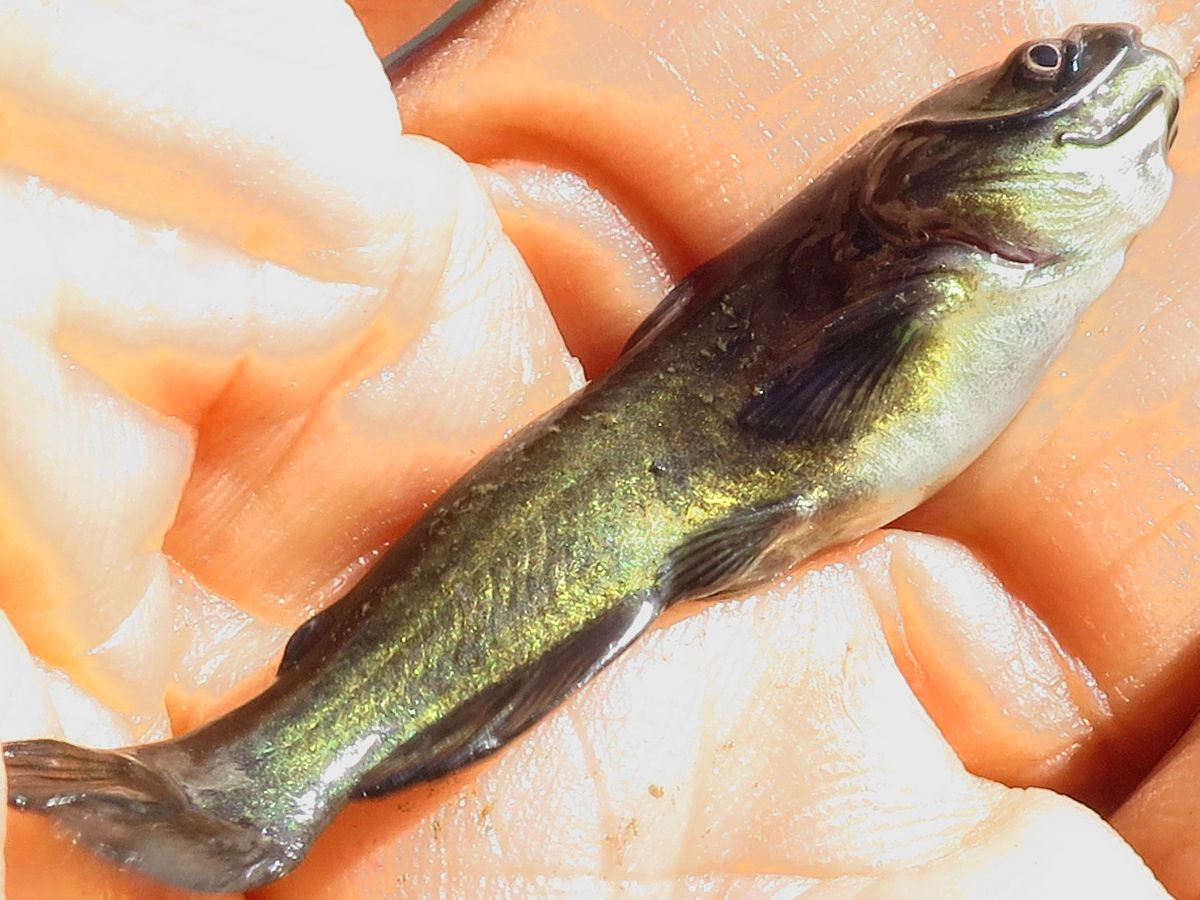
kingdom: Animalia
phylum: Chordata
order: Siluriformes
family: Ictaluridae
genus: Ameiurus
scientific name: Ameiurus melas
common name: Black bullhead
